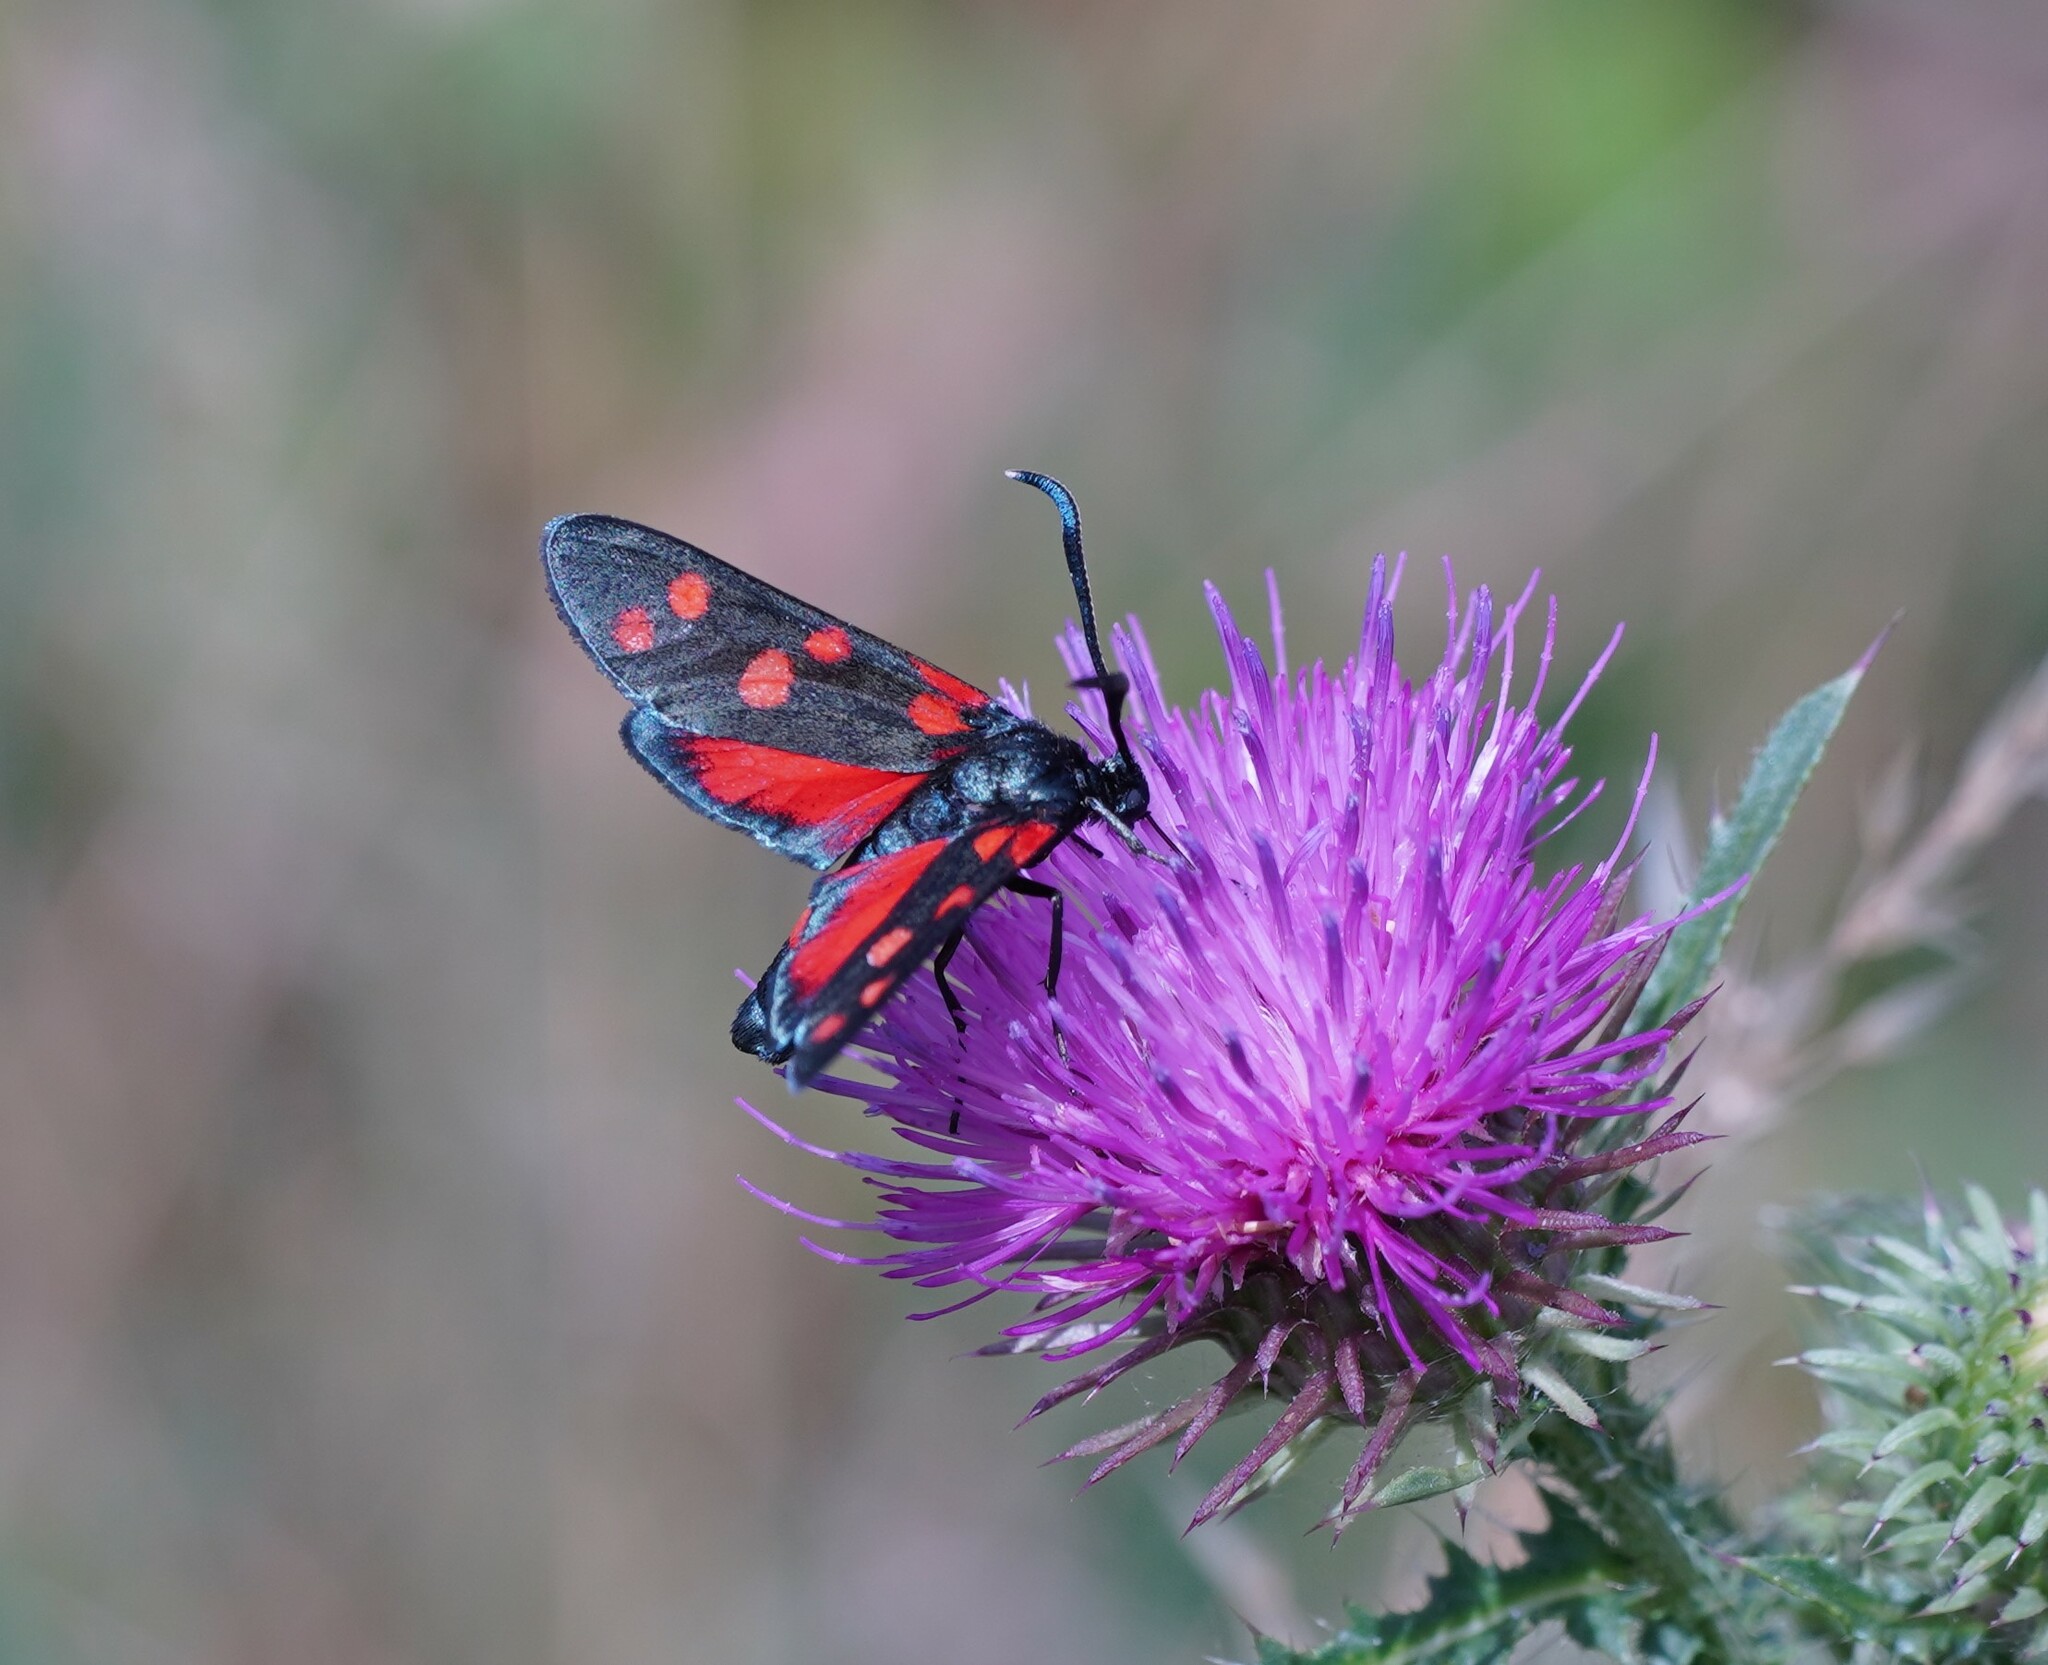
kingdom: Animalia
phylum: Arthropoda
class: Insecta
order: Lepidoptera
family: Zygaenidae
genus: Zygaena
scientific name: Zygaena ephialtes
